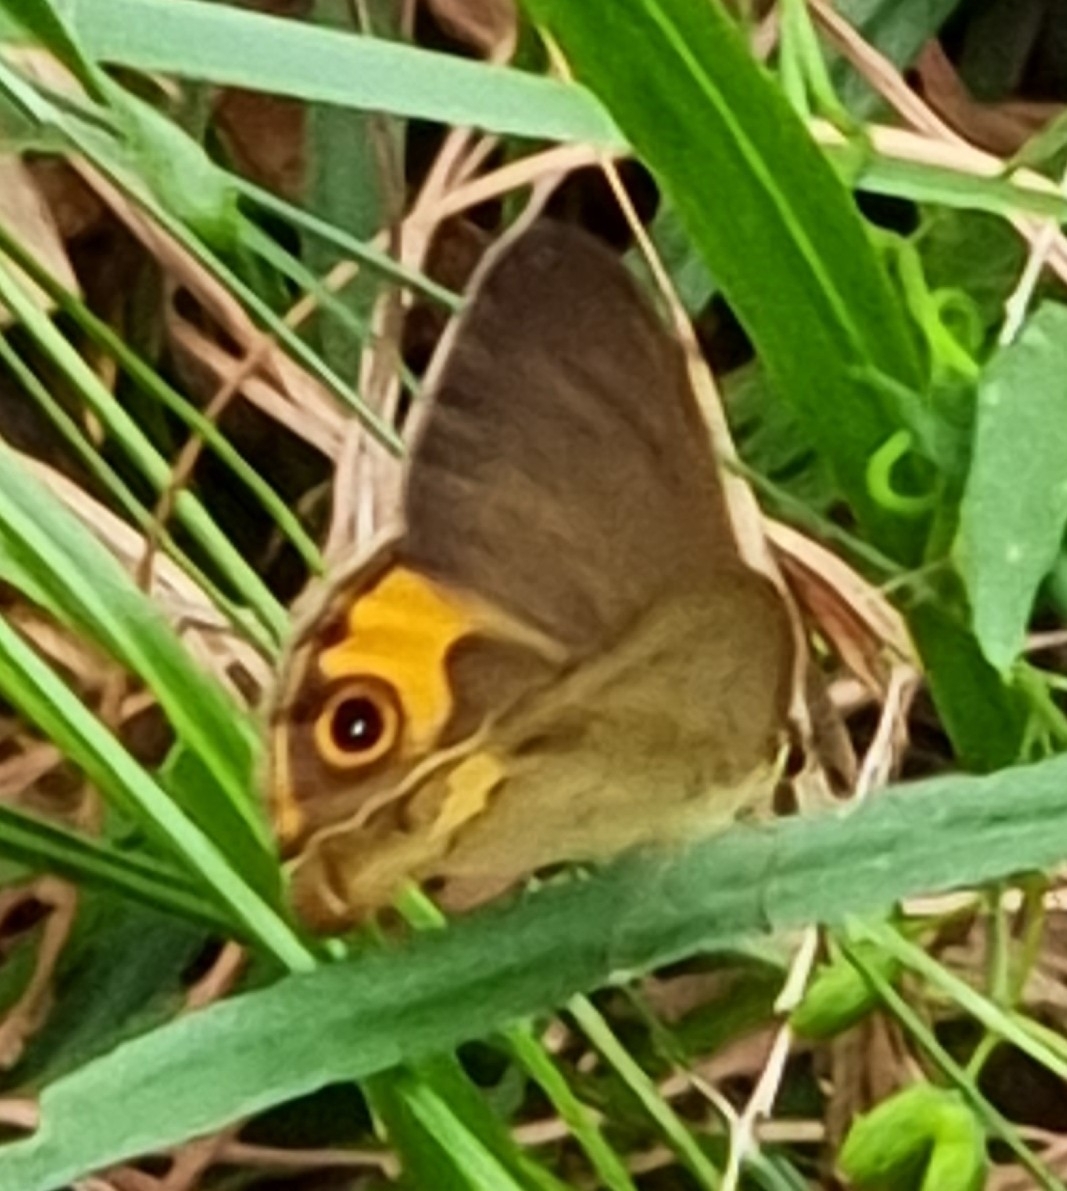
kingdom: Animalia
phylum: Arthropoda
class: Insecta
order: Lepidoptera
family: Nymphalidae
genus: Hypocysta
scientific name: Hypocysta metirius
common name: Brown ringlet
